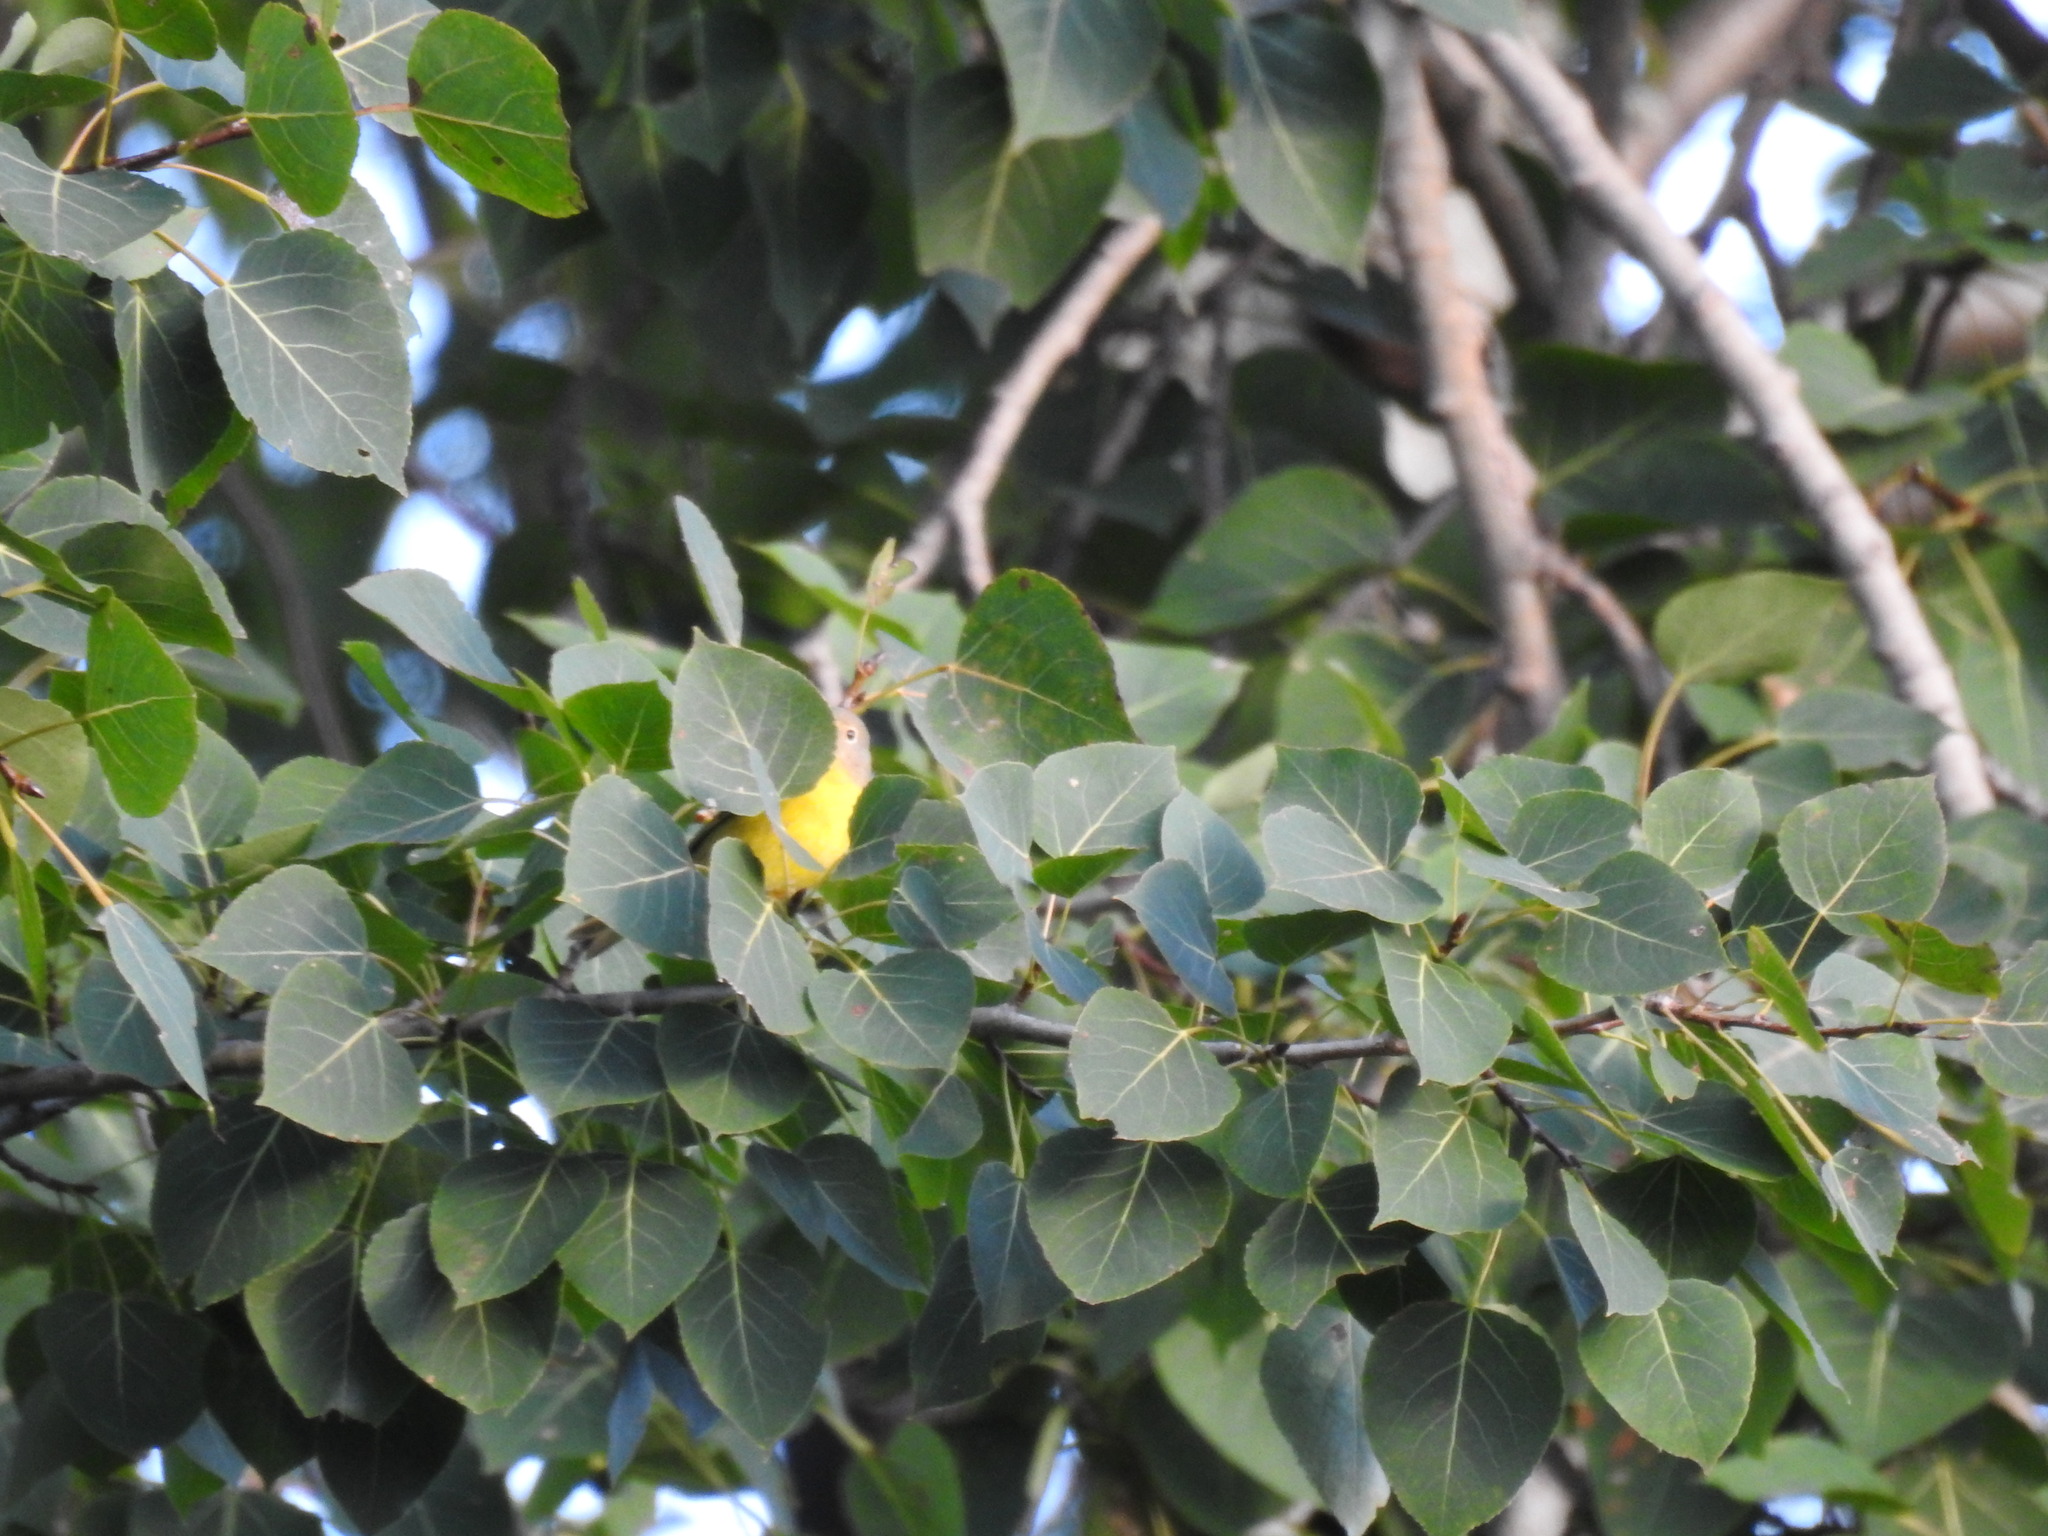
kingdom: Animalia
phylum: Chordata
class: Aves
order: Passeriformes
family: Parulidae
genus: Leiothlypis
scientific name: Leiothlypis ruficapilla
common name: Nashville warbler
